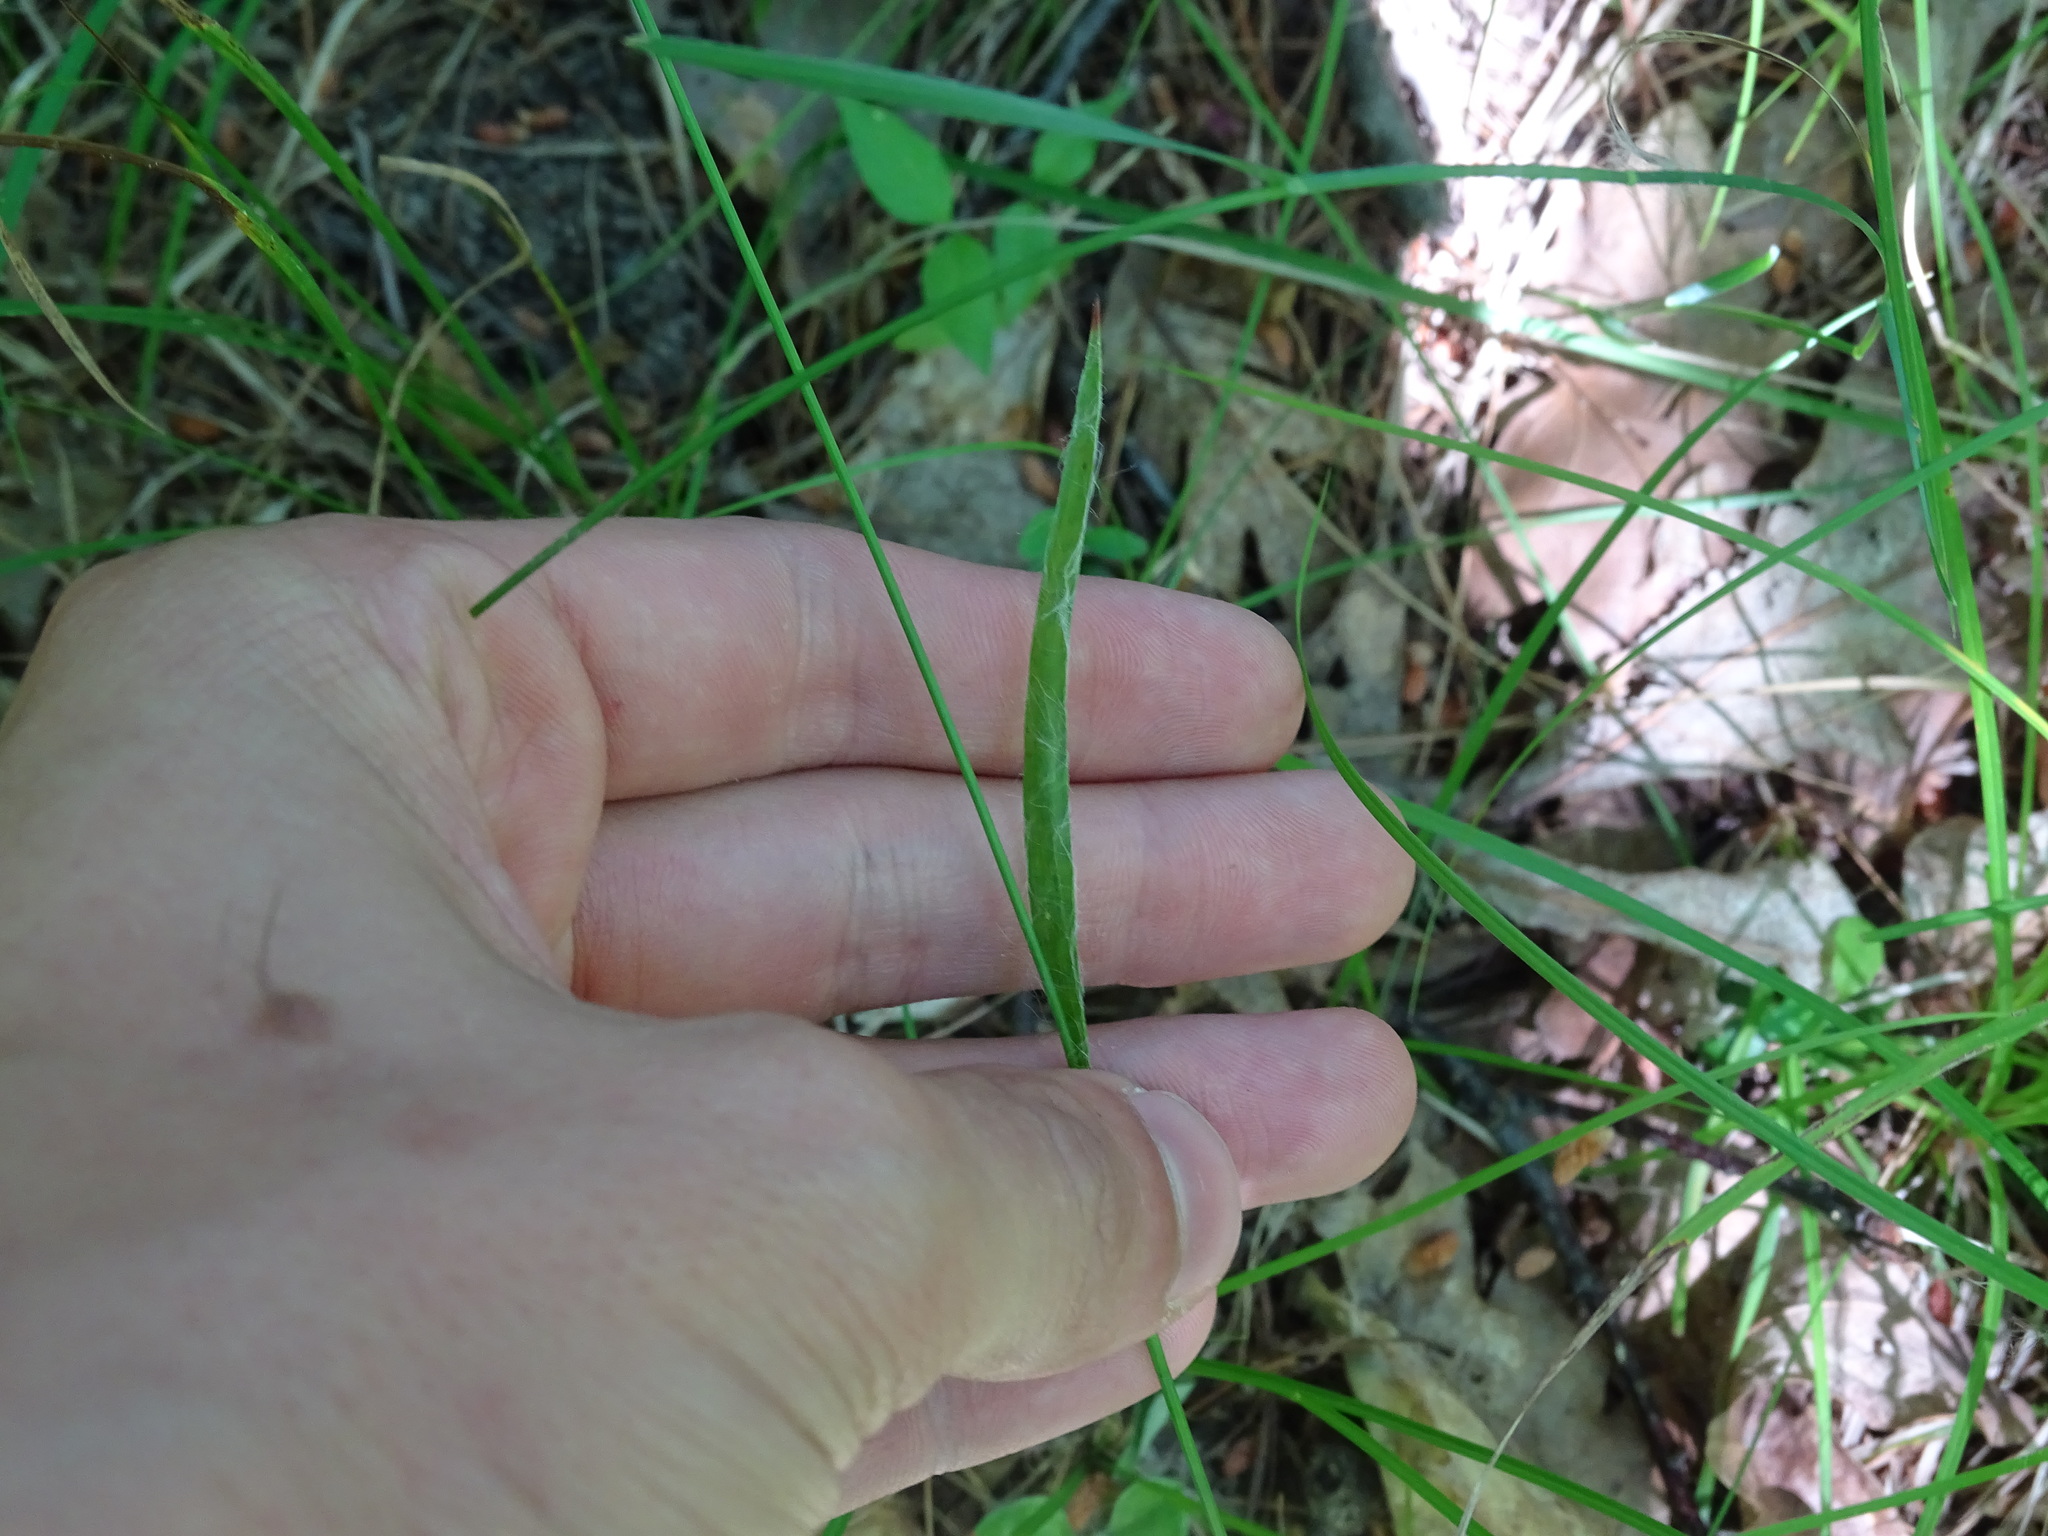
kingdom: Plantae
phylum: Tracheophyta
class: Liliopsida
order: Poales
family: Juncaceae
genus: Luzula
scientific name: Luzula multiflora
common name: Heath wood-rush
